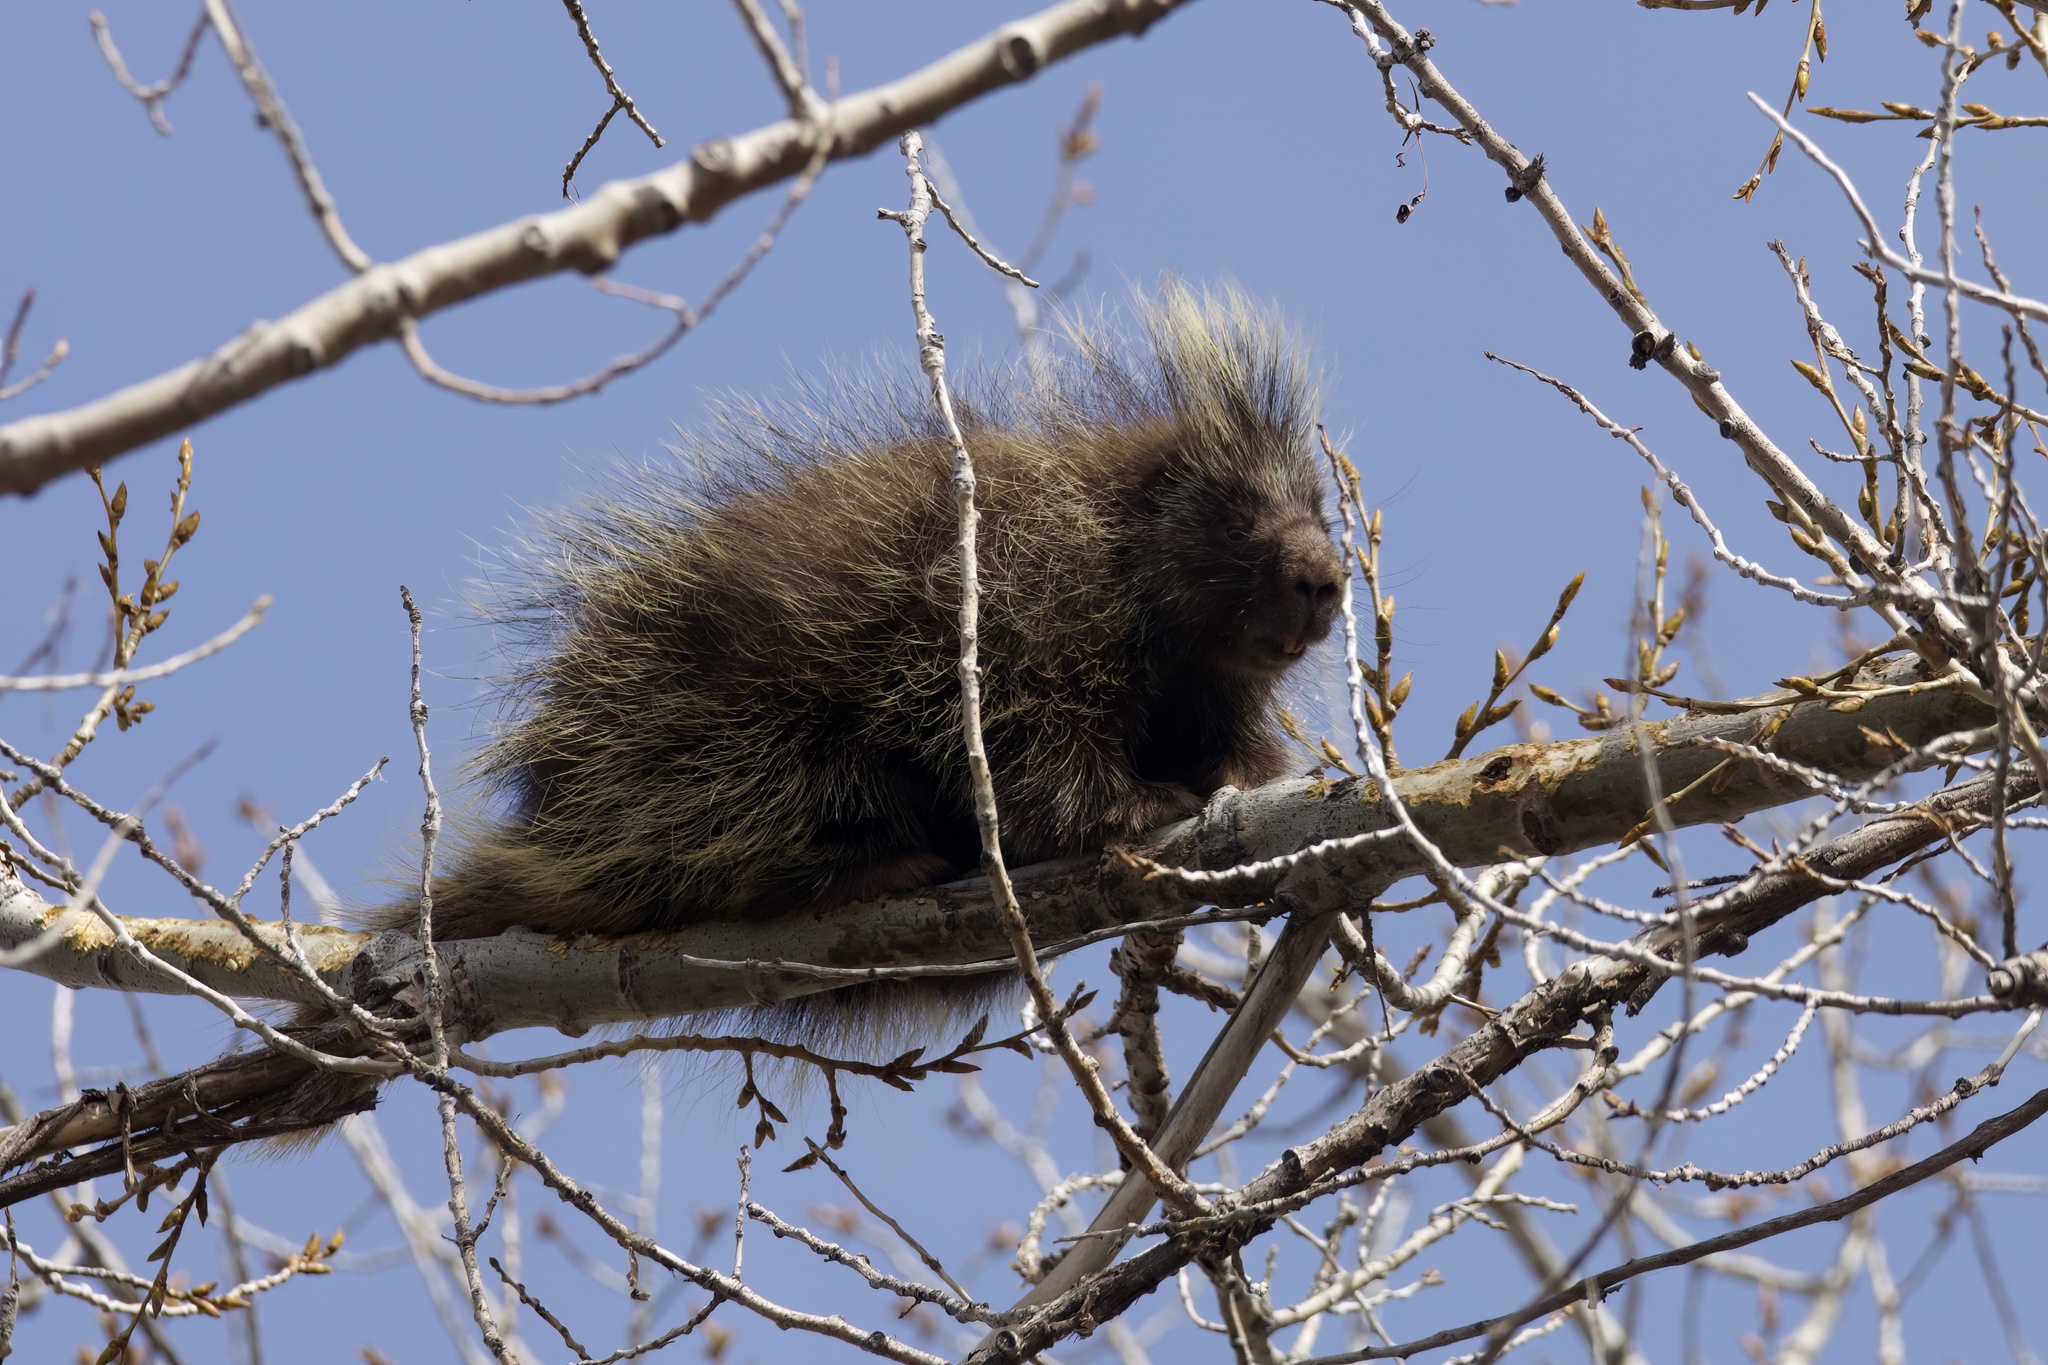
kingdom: Animalia
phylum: Chordata
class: Mammalia
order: Rodentia
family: Erethizontidae
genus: Erethizon
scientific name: Erethizon dorsatus
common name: North american porcupine
